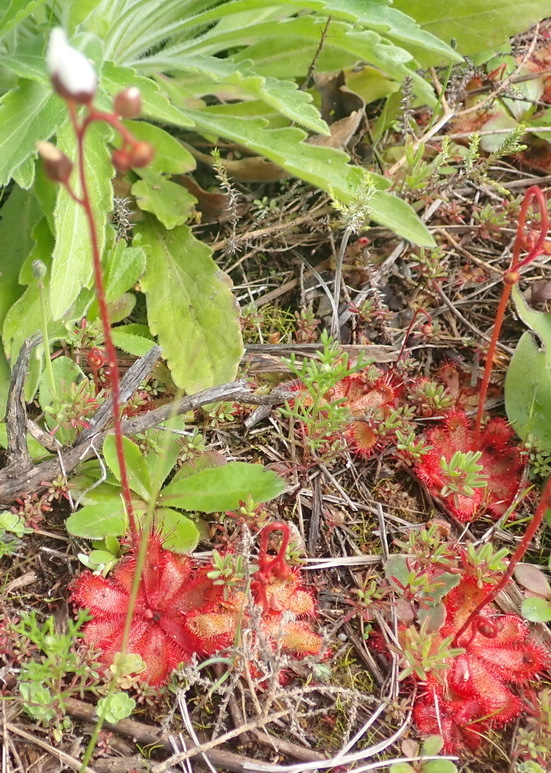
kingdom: Plantae
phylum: Tracheophyta
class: Magnoliopsida
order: Caryophyllales
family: Droseraceae
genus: Drosera
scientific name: Drosera trinervia
